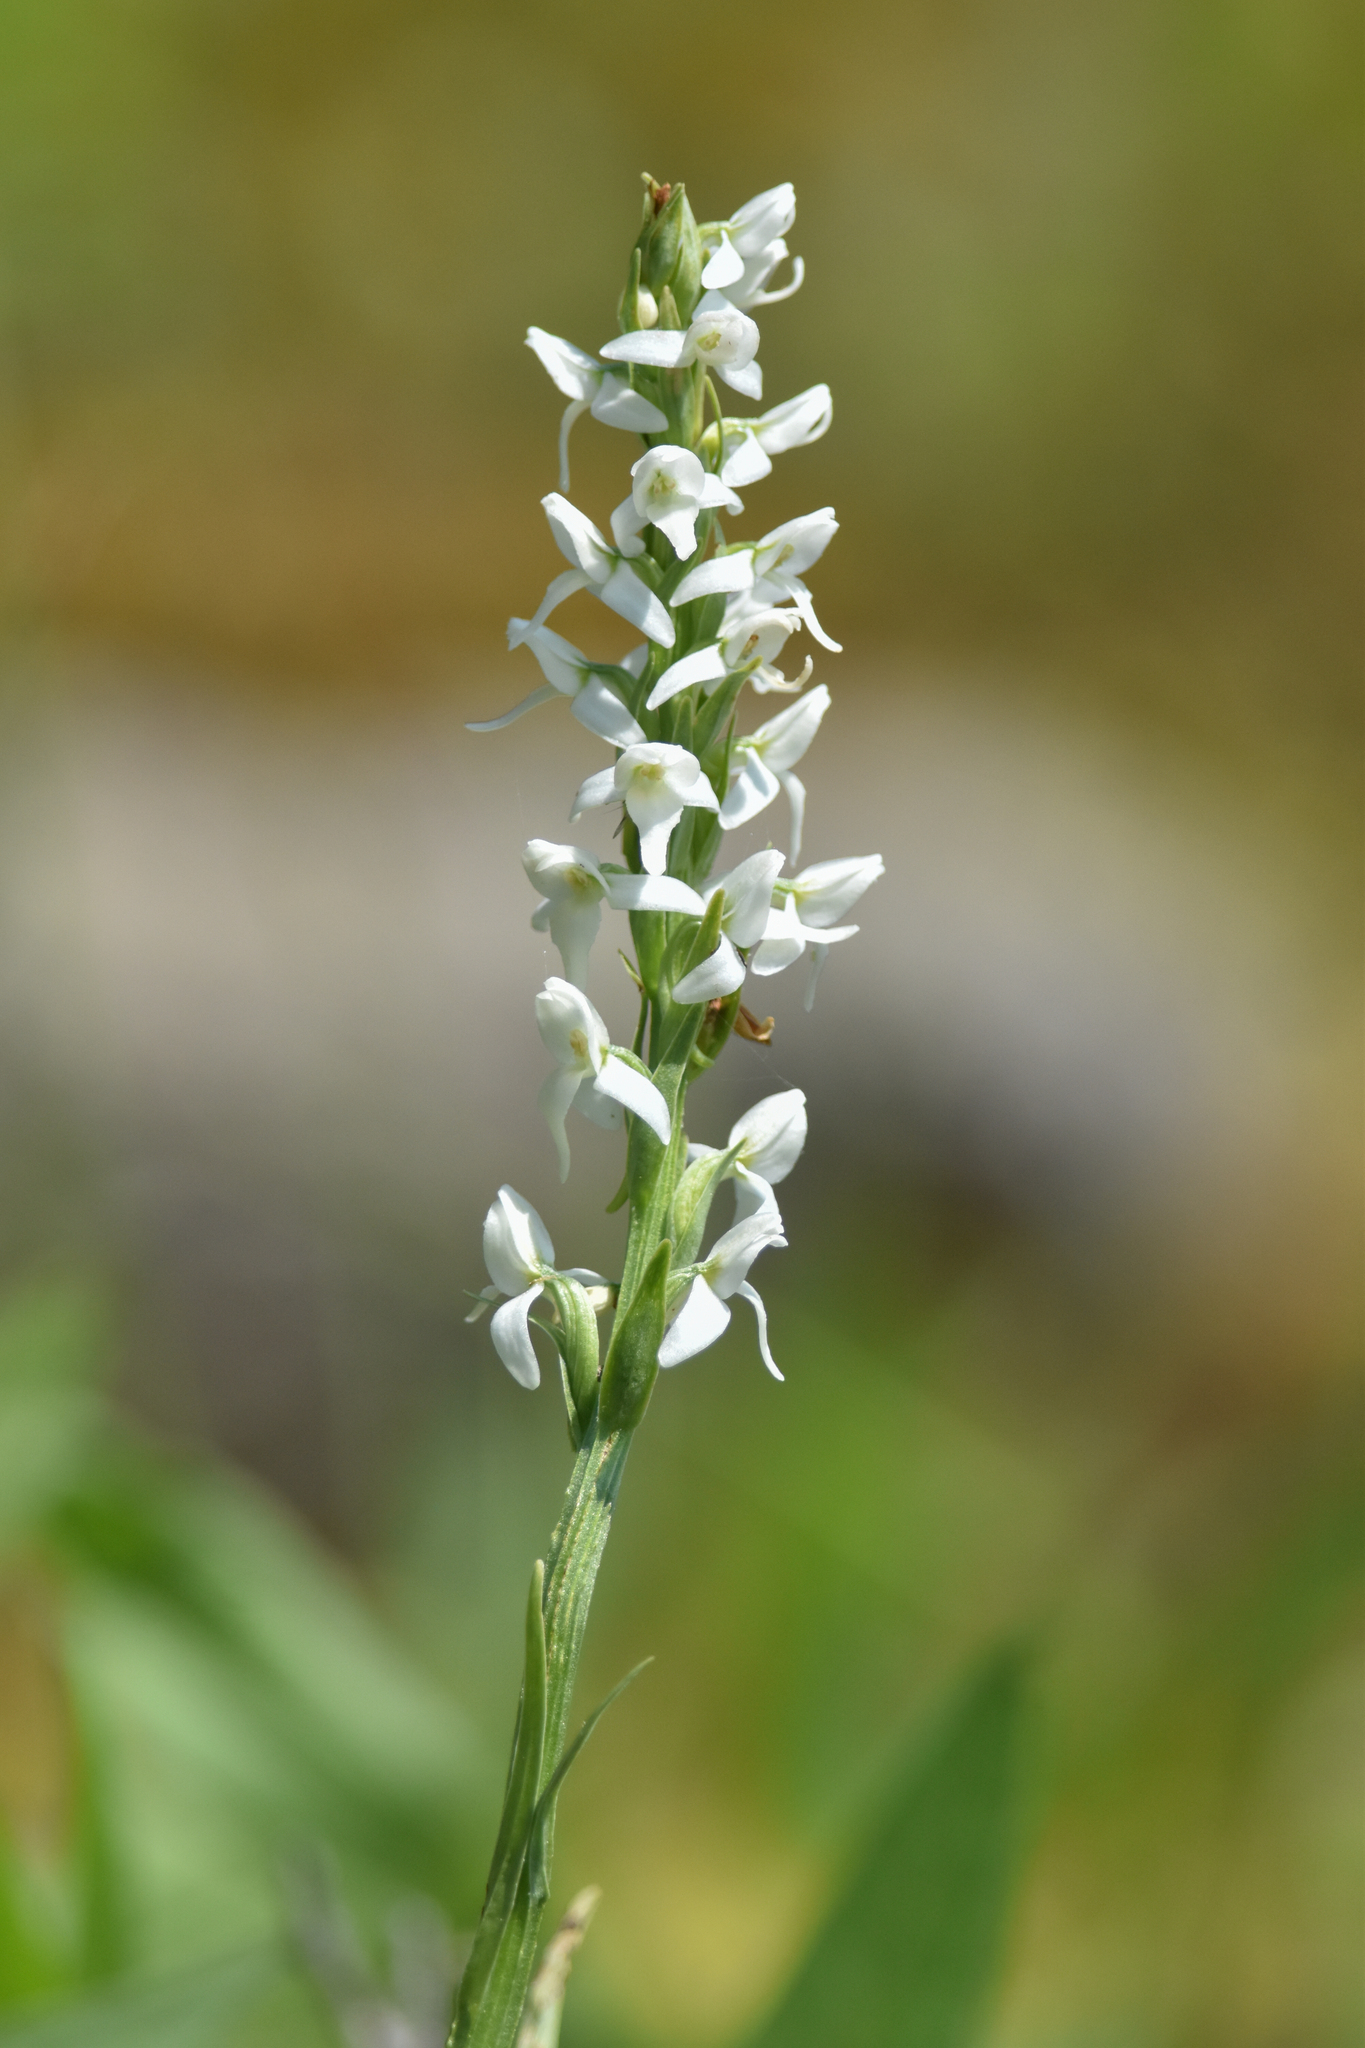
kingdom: Plantae
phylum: Tracheophyta
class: Liliopsida
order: Asparagales
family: Orchidaceae
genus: Platanthera
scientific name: Platanthera dilatata
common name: Bog candles
